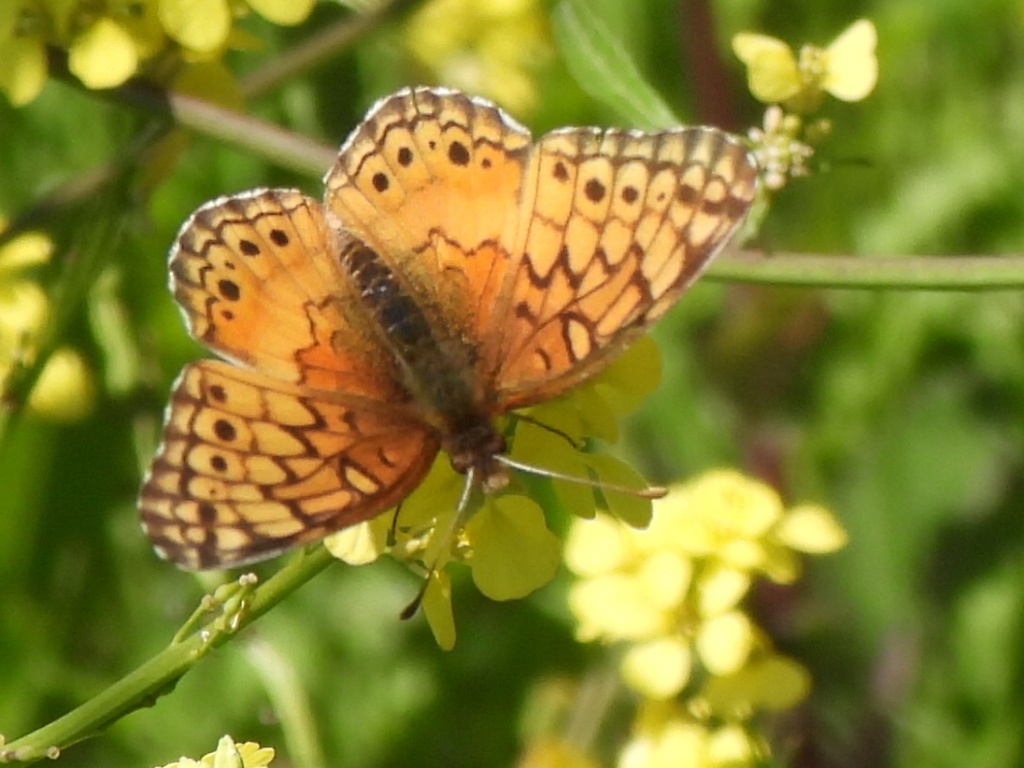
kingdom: Animalia
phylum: Arthropoda
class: Insecta
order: Lepidoptera
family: Nymphalidae
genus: Euptoieta
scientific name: Euptoieta claudia
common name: Variegated fritillary
